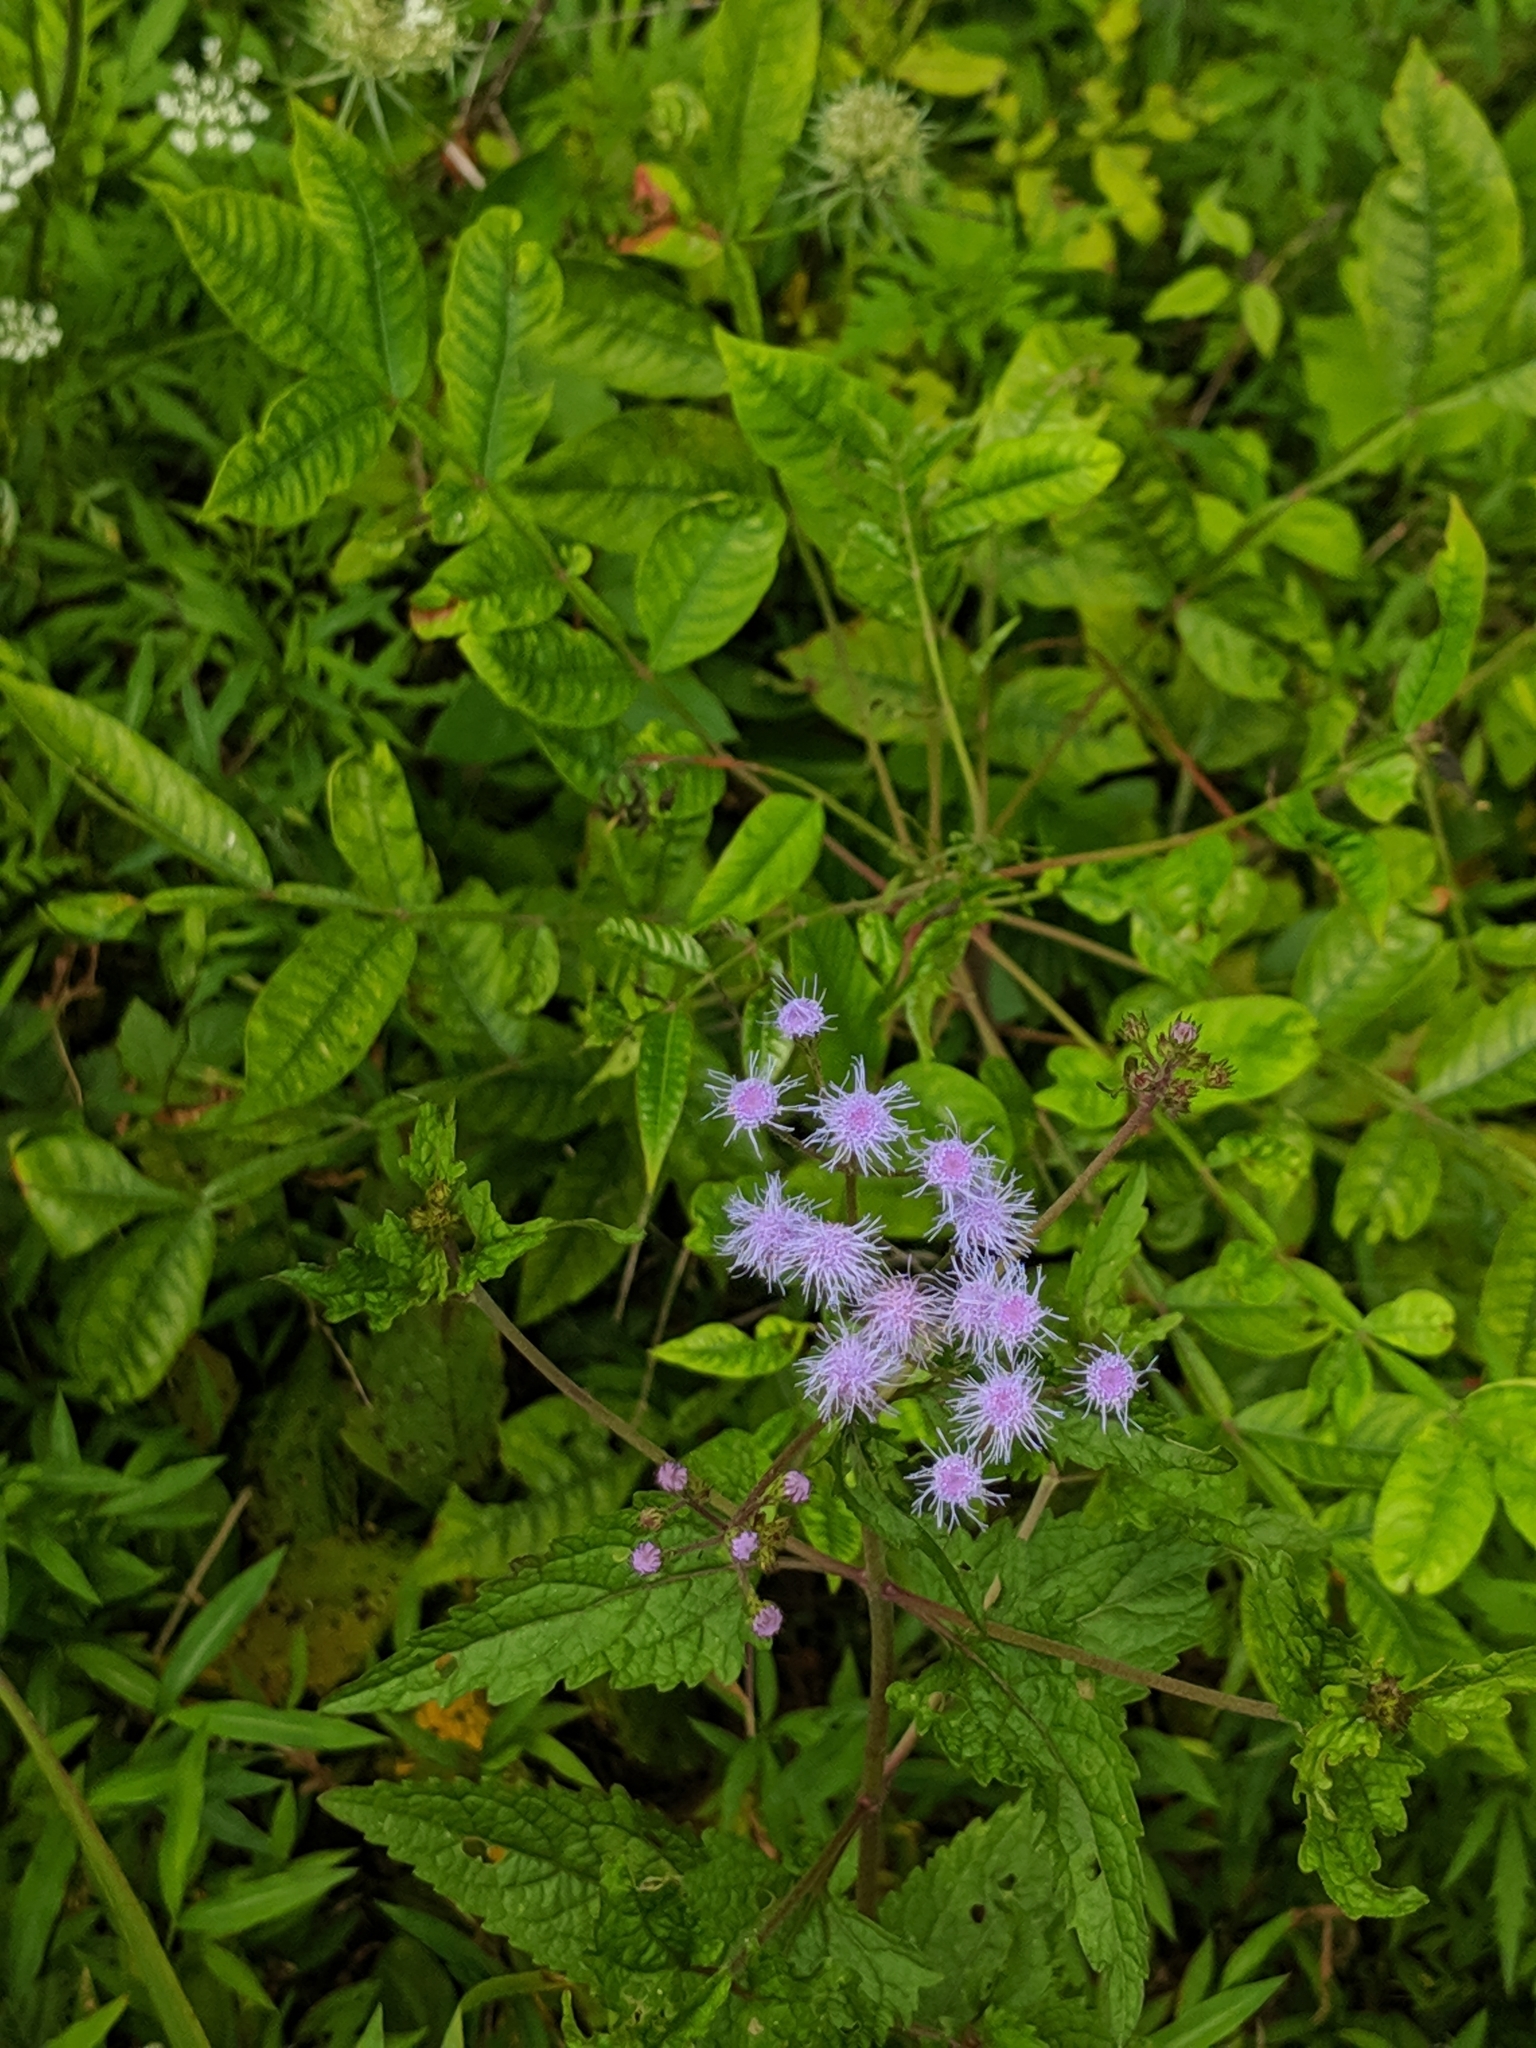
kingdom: Plantae
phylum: Tracheophyta
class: Magnoliopsida
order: Asterales
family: Asteraceae
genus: Conoclinium
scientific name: Conoclinium coelestinum
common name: Blue mistflower
